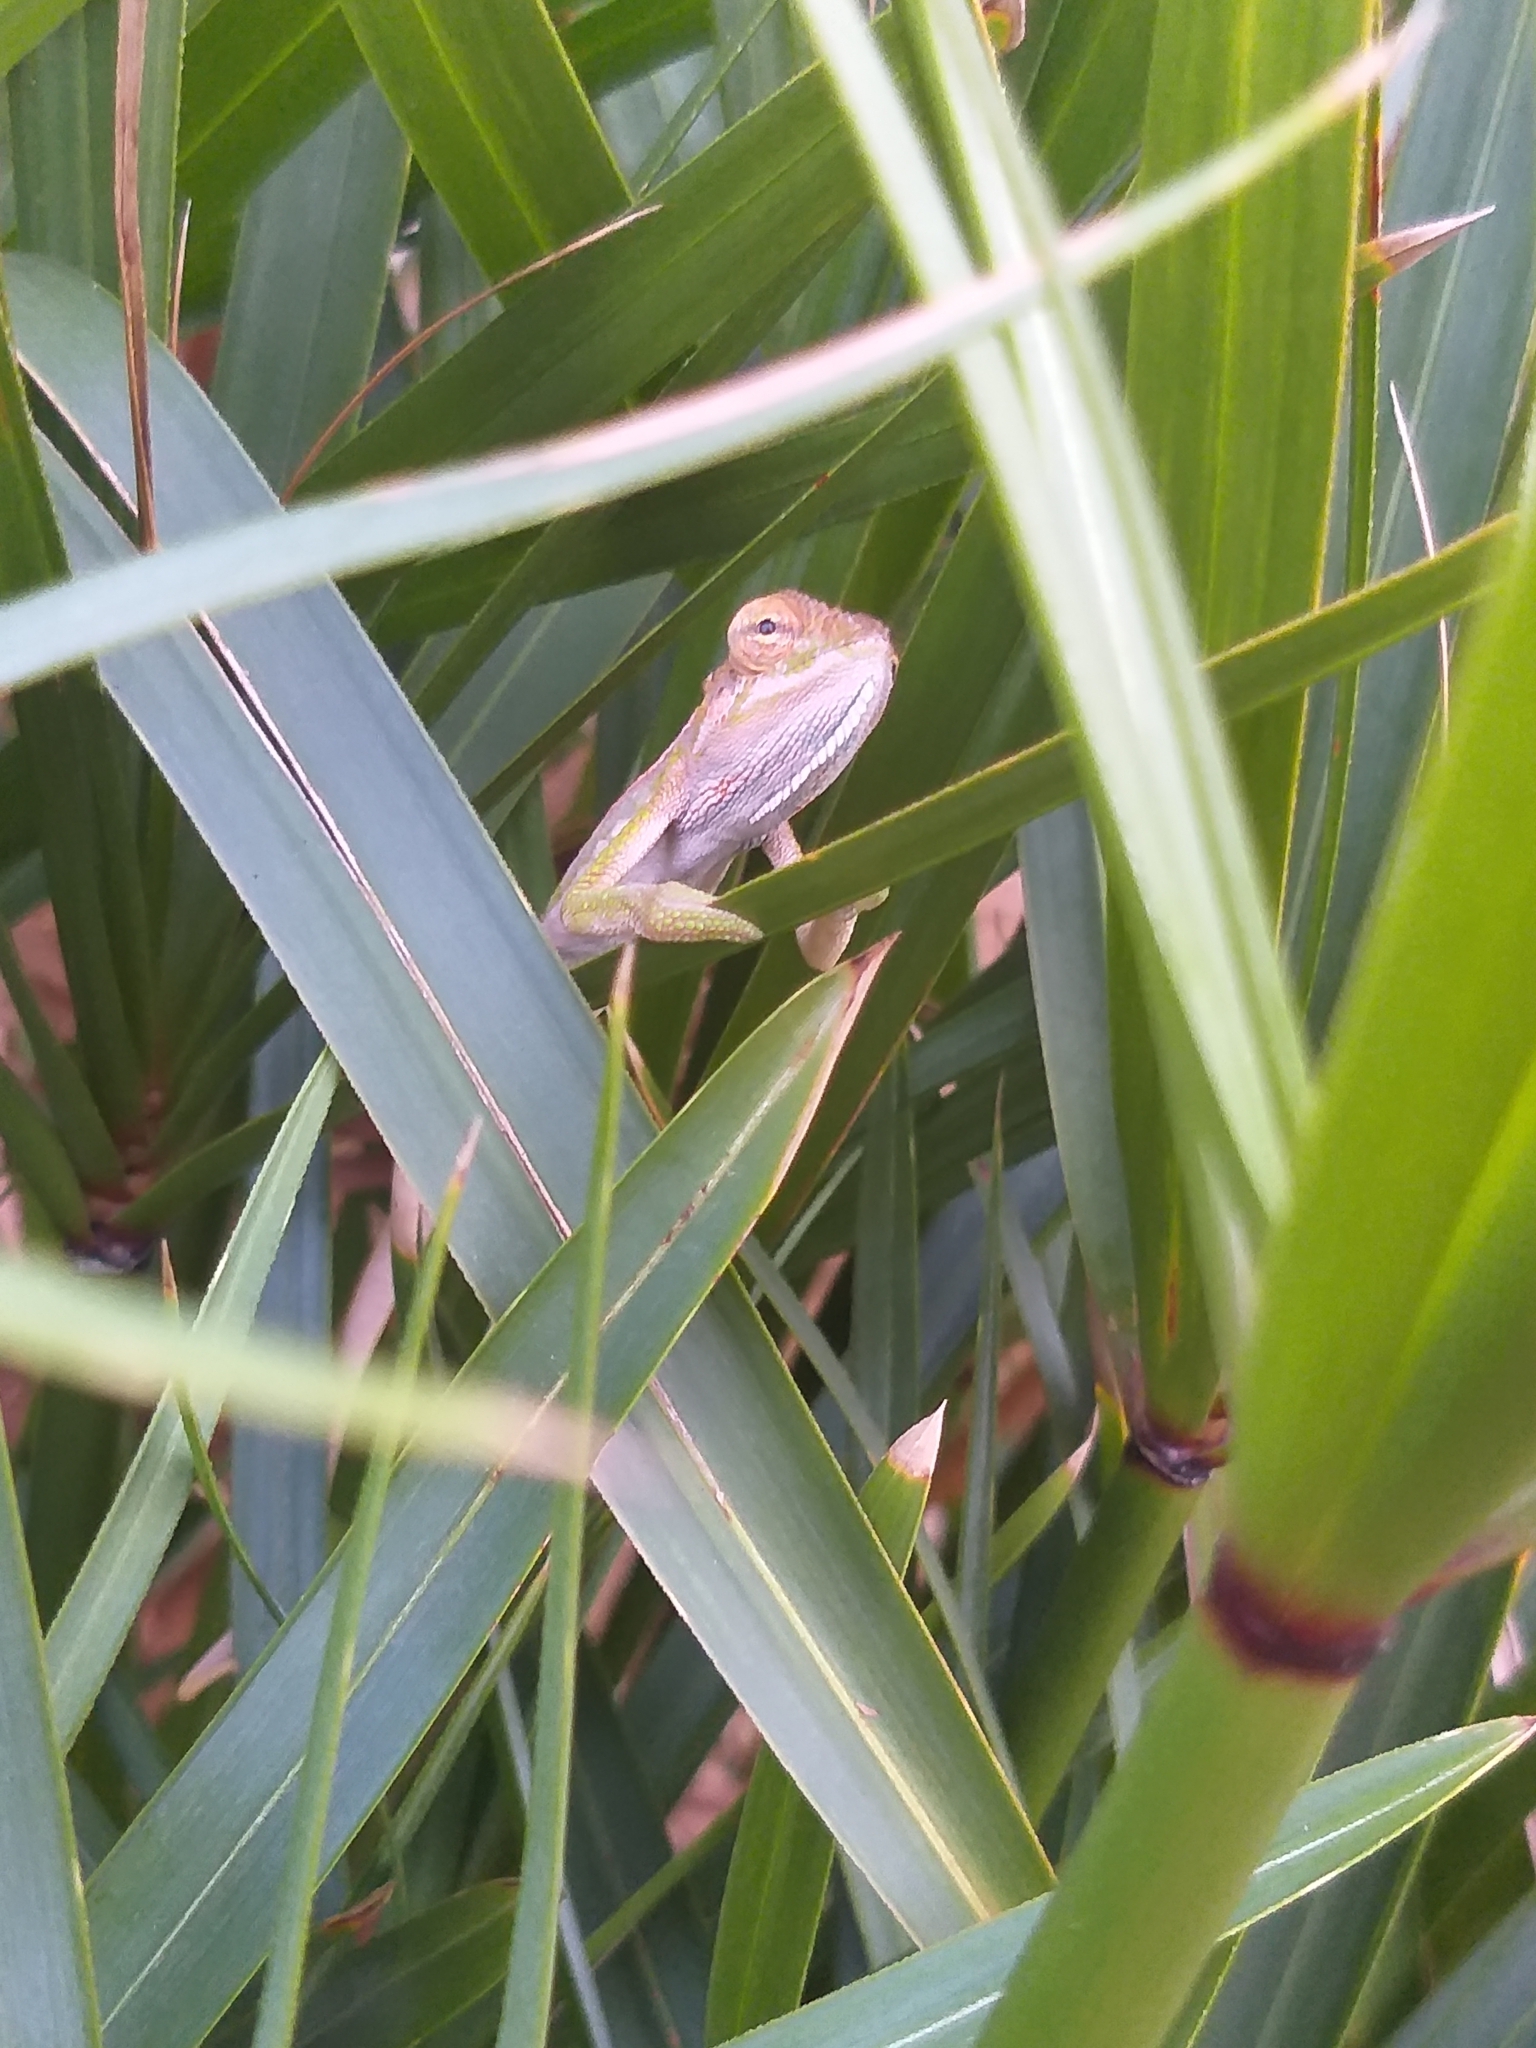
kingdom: Animalia
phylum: Chordata
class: Squamata
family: Chamaeleonidae
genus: Bradypodion
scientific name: Bradypodion pumilum
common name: Cape dwarf chameleon
